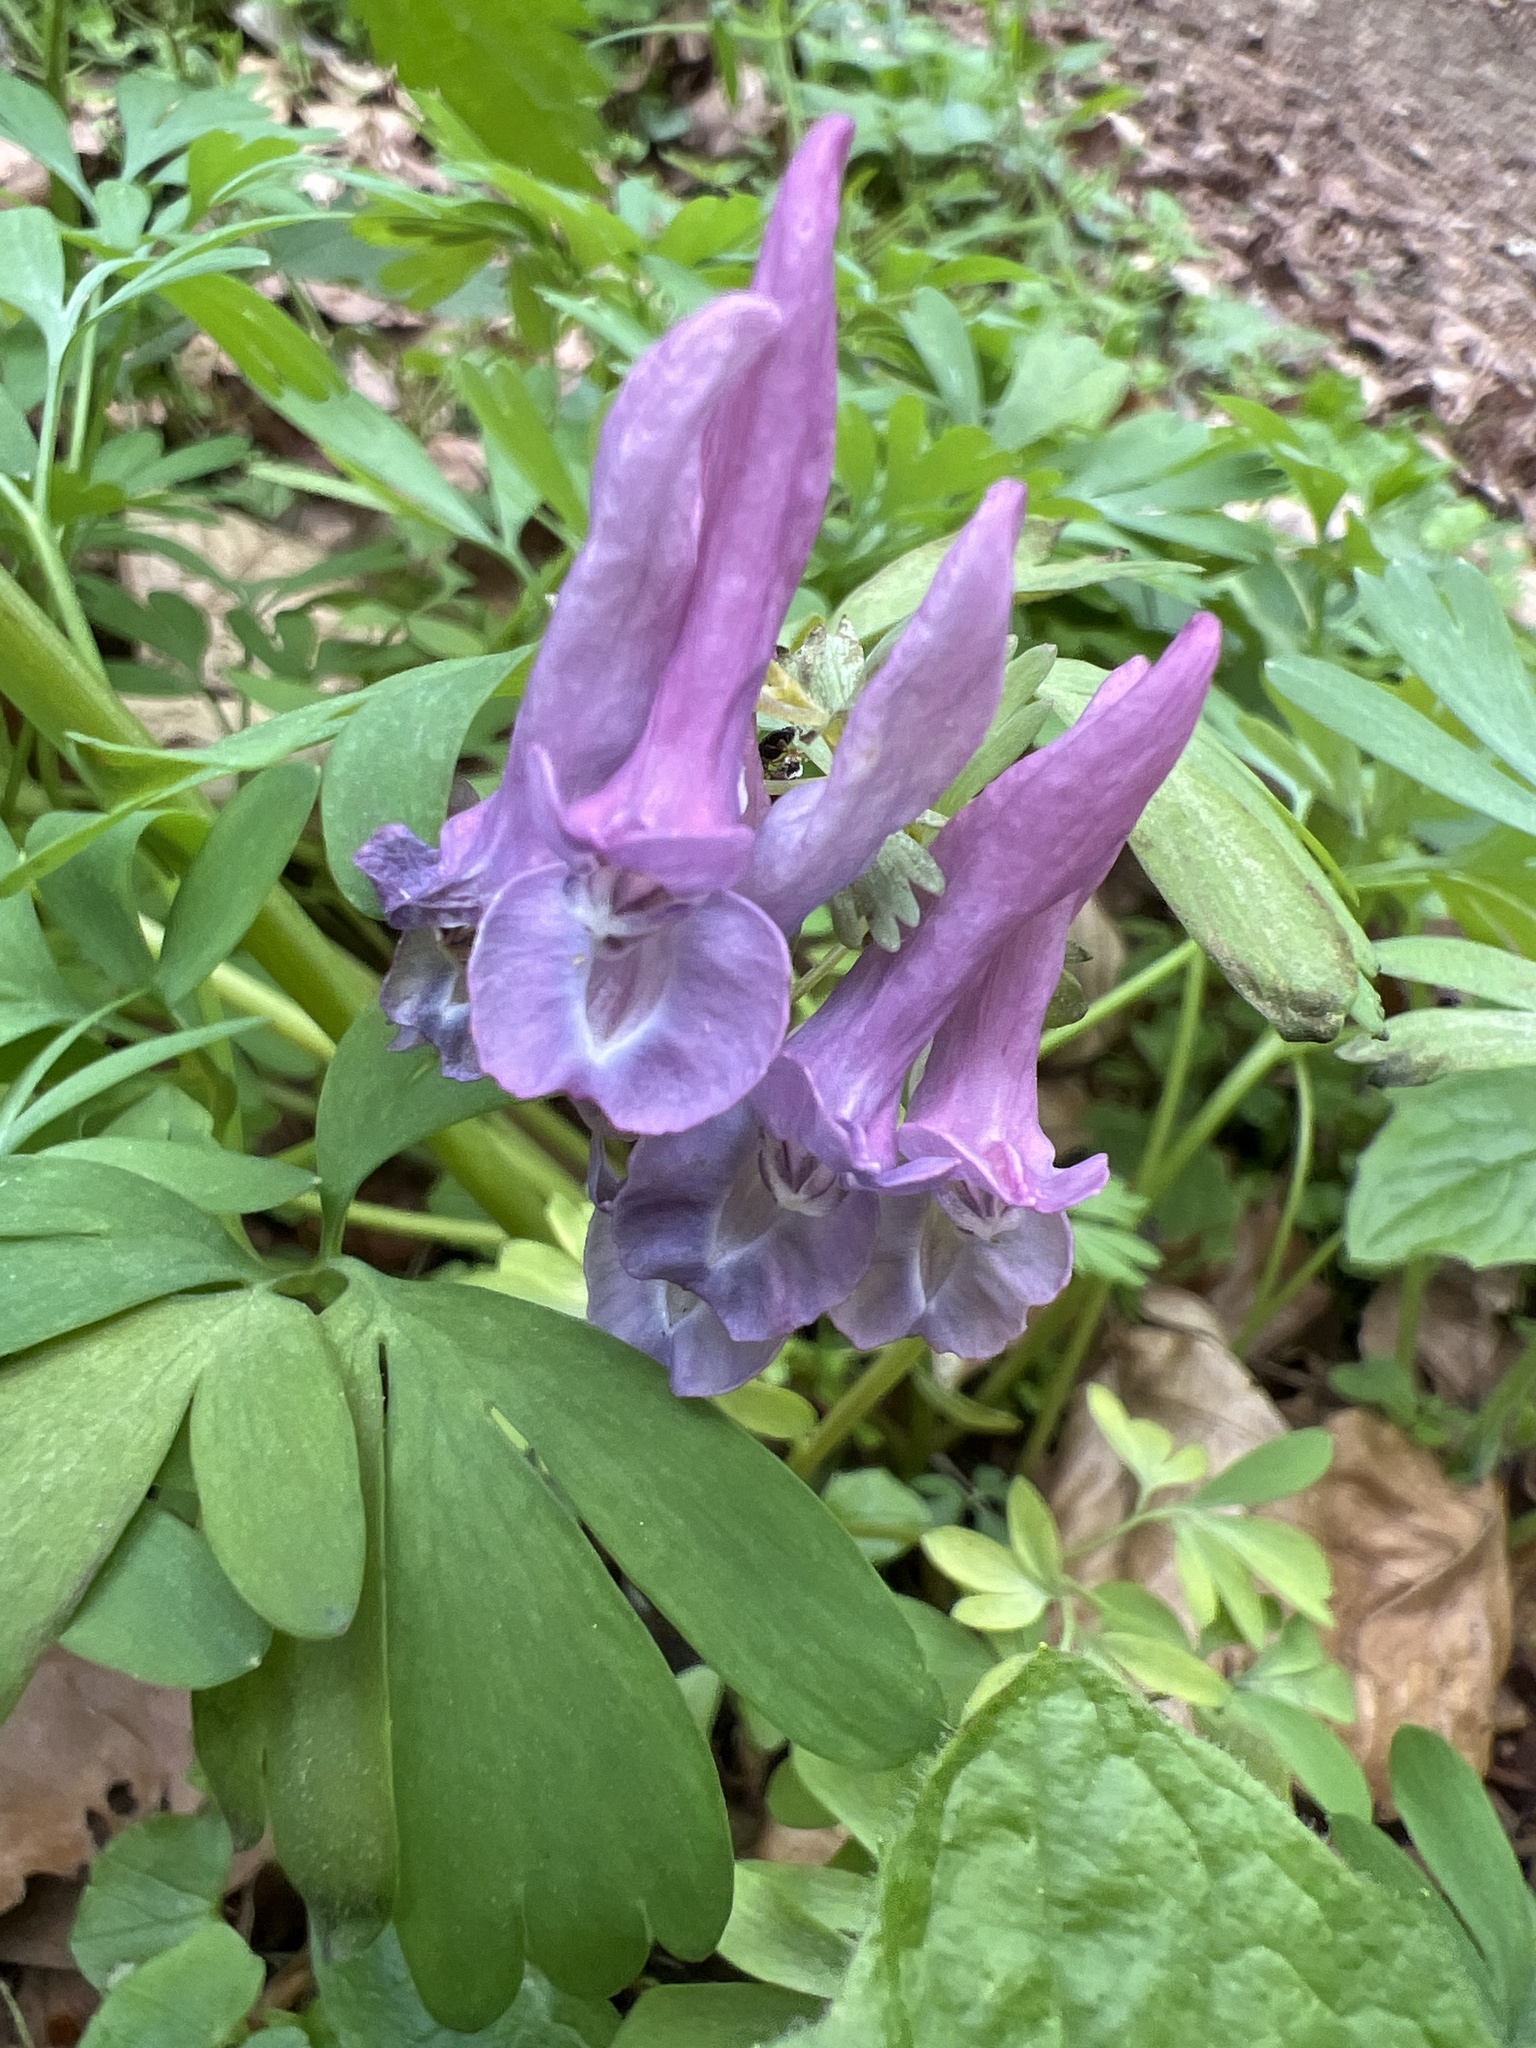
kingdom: Plantae
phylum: Tracheophyta
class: Magnoliopsida
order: Ranunculales
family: Papaveraceae
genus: Corydalis
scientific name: Corydalis solida
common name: Bird-in-a-bush
